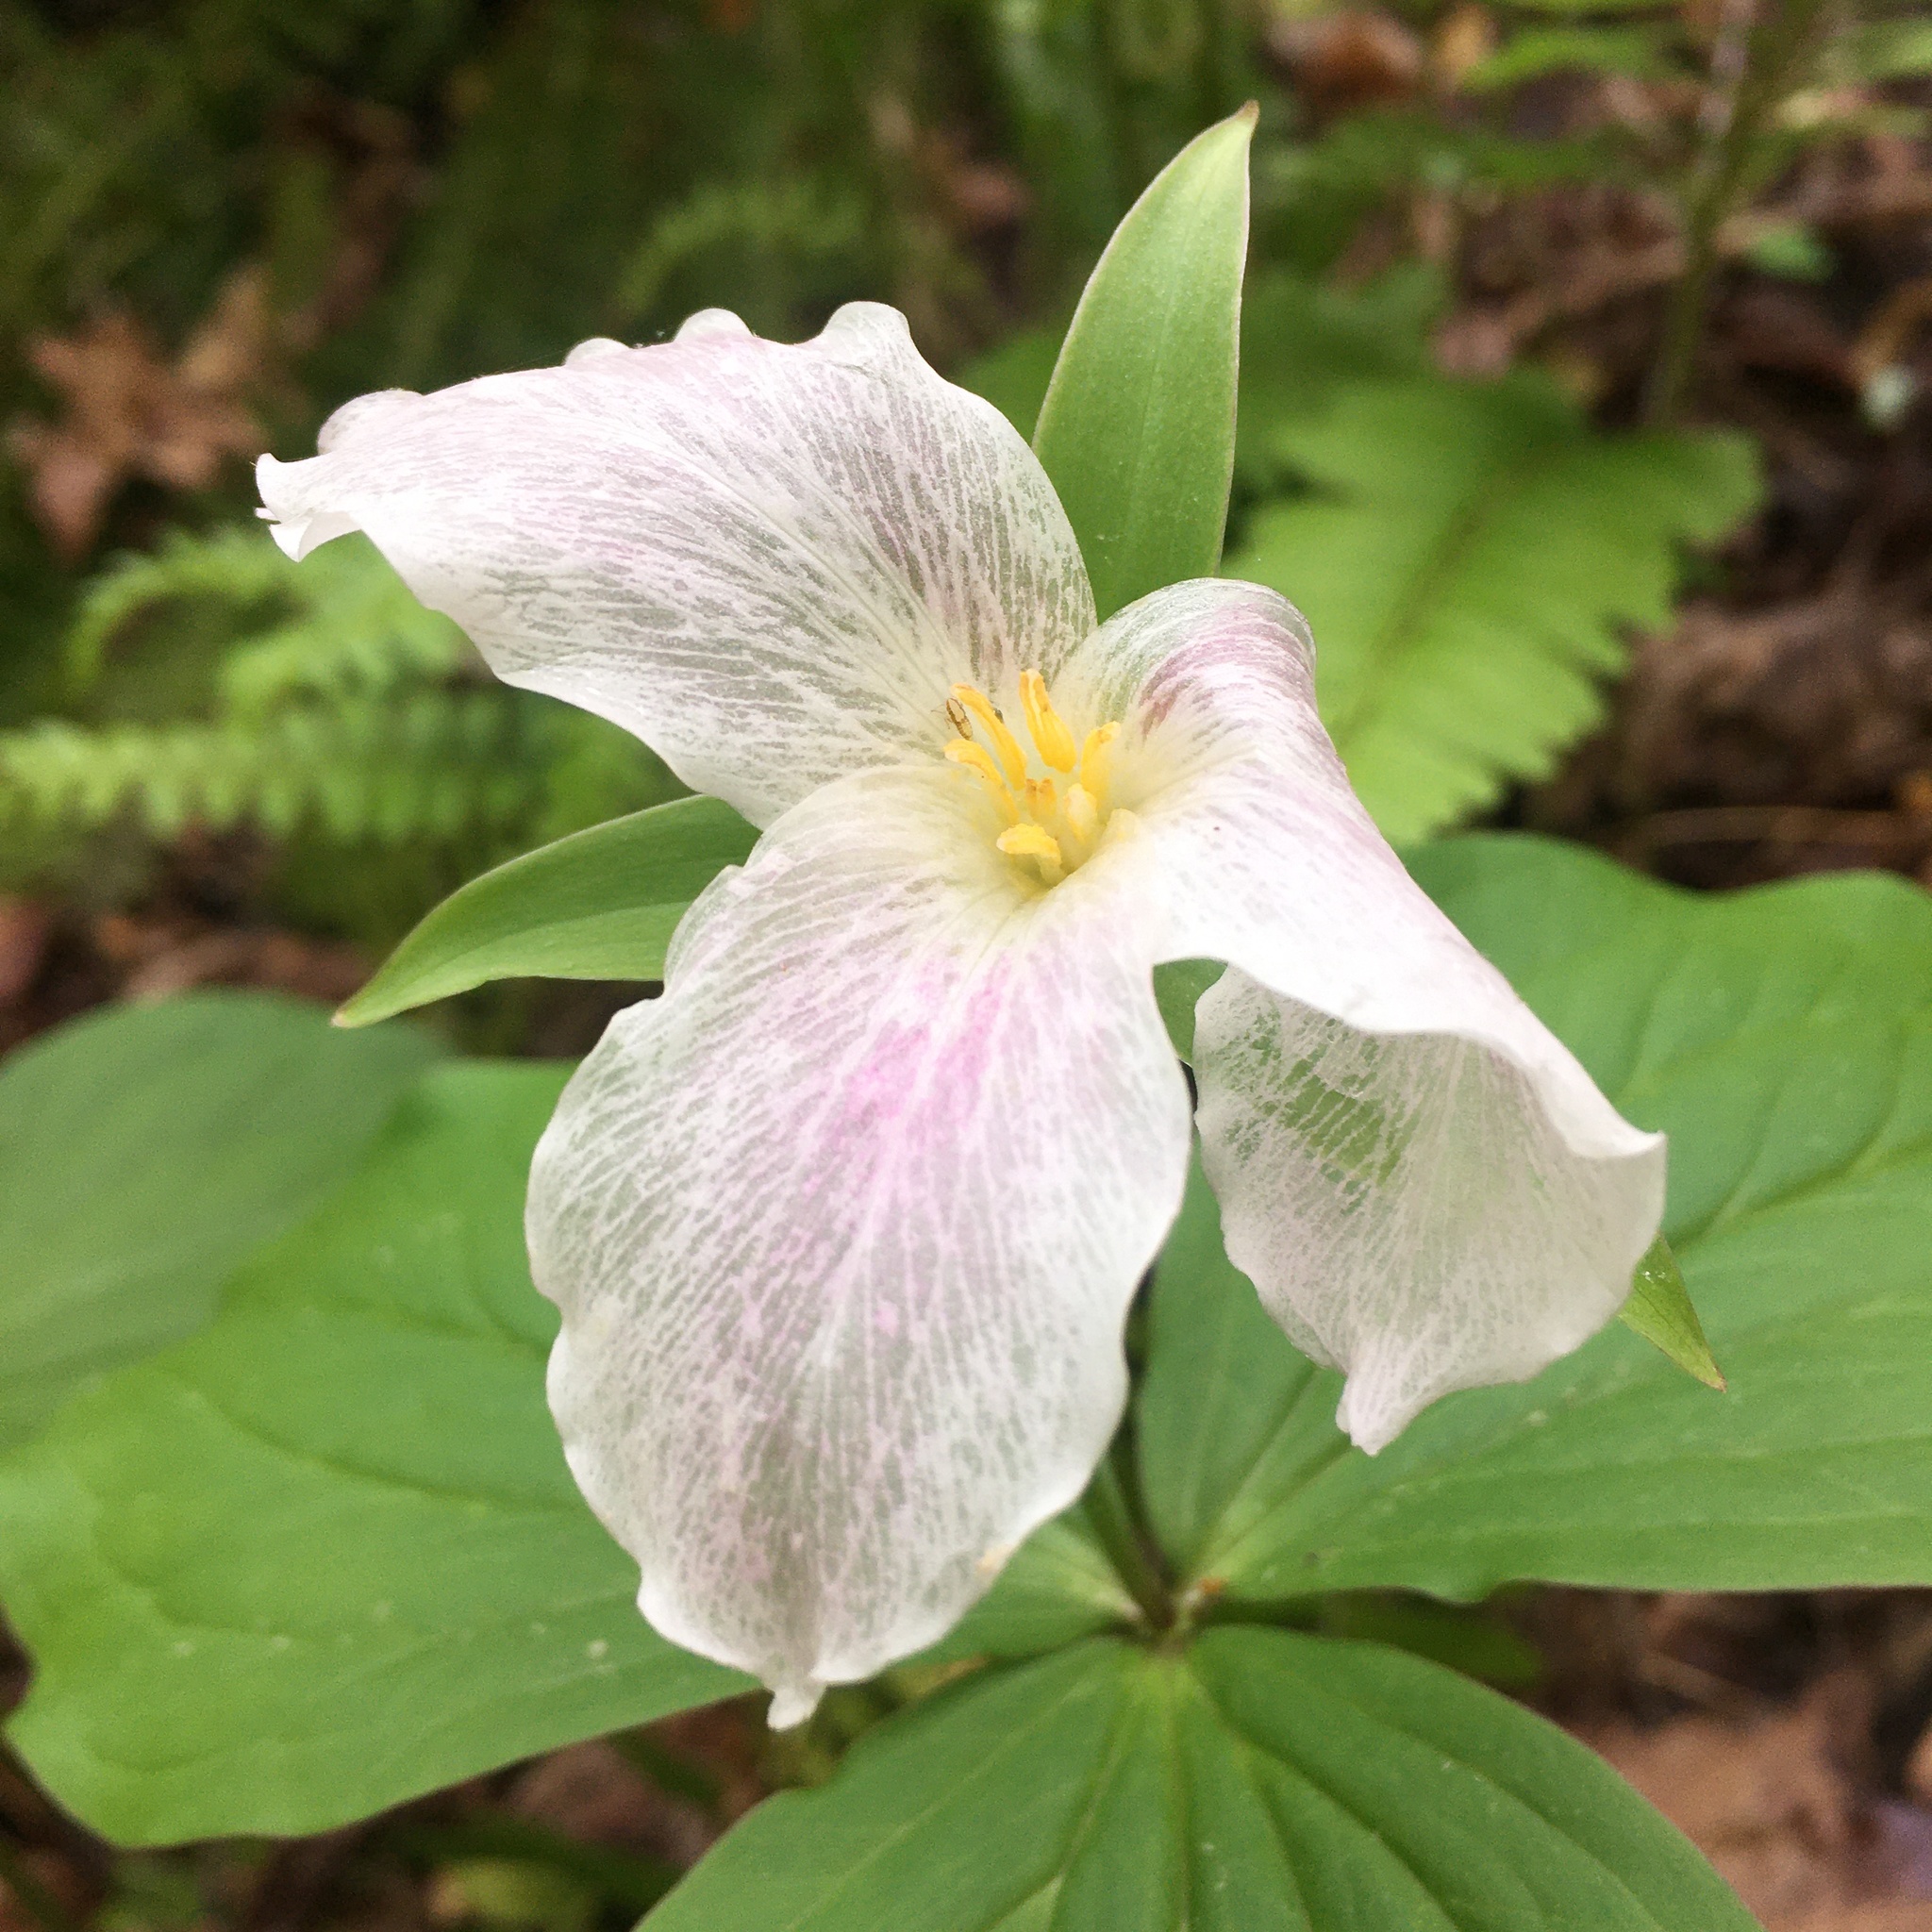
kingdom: Plantae
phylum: Tracheophyta
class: Liliopsida
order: Liliales
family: Melanthiaceae
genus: Trillium
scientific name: Trillium grandiflorum
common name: Great white trillium
